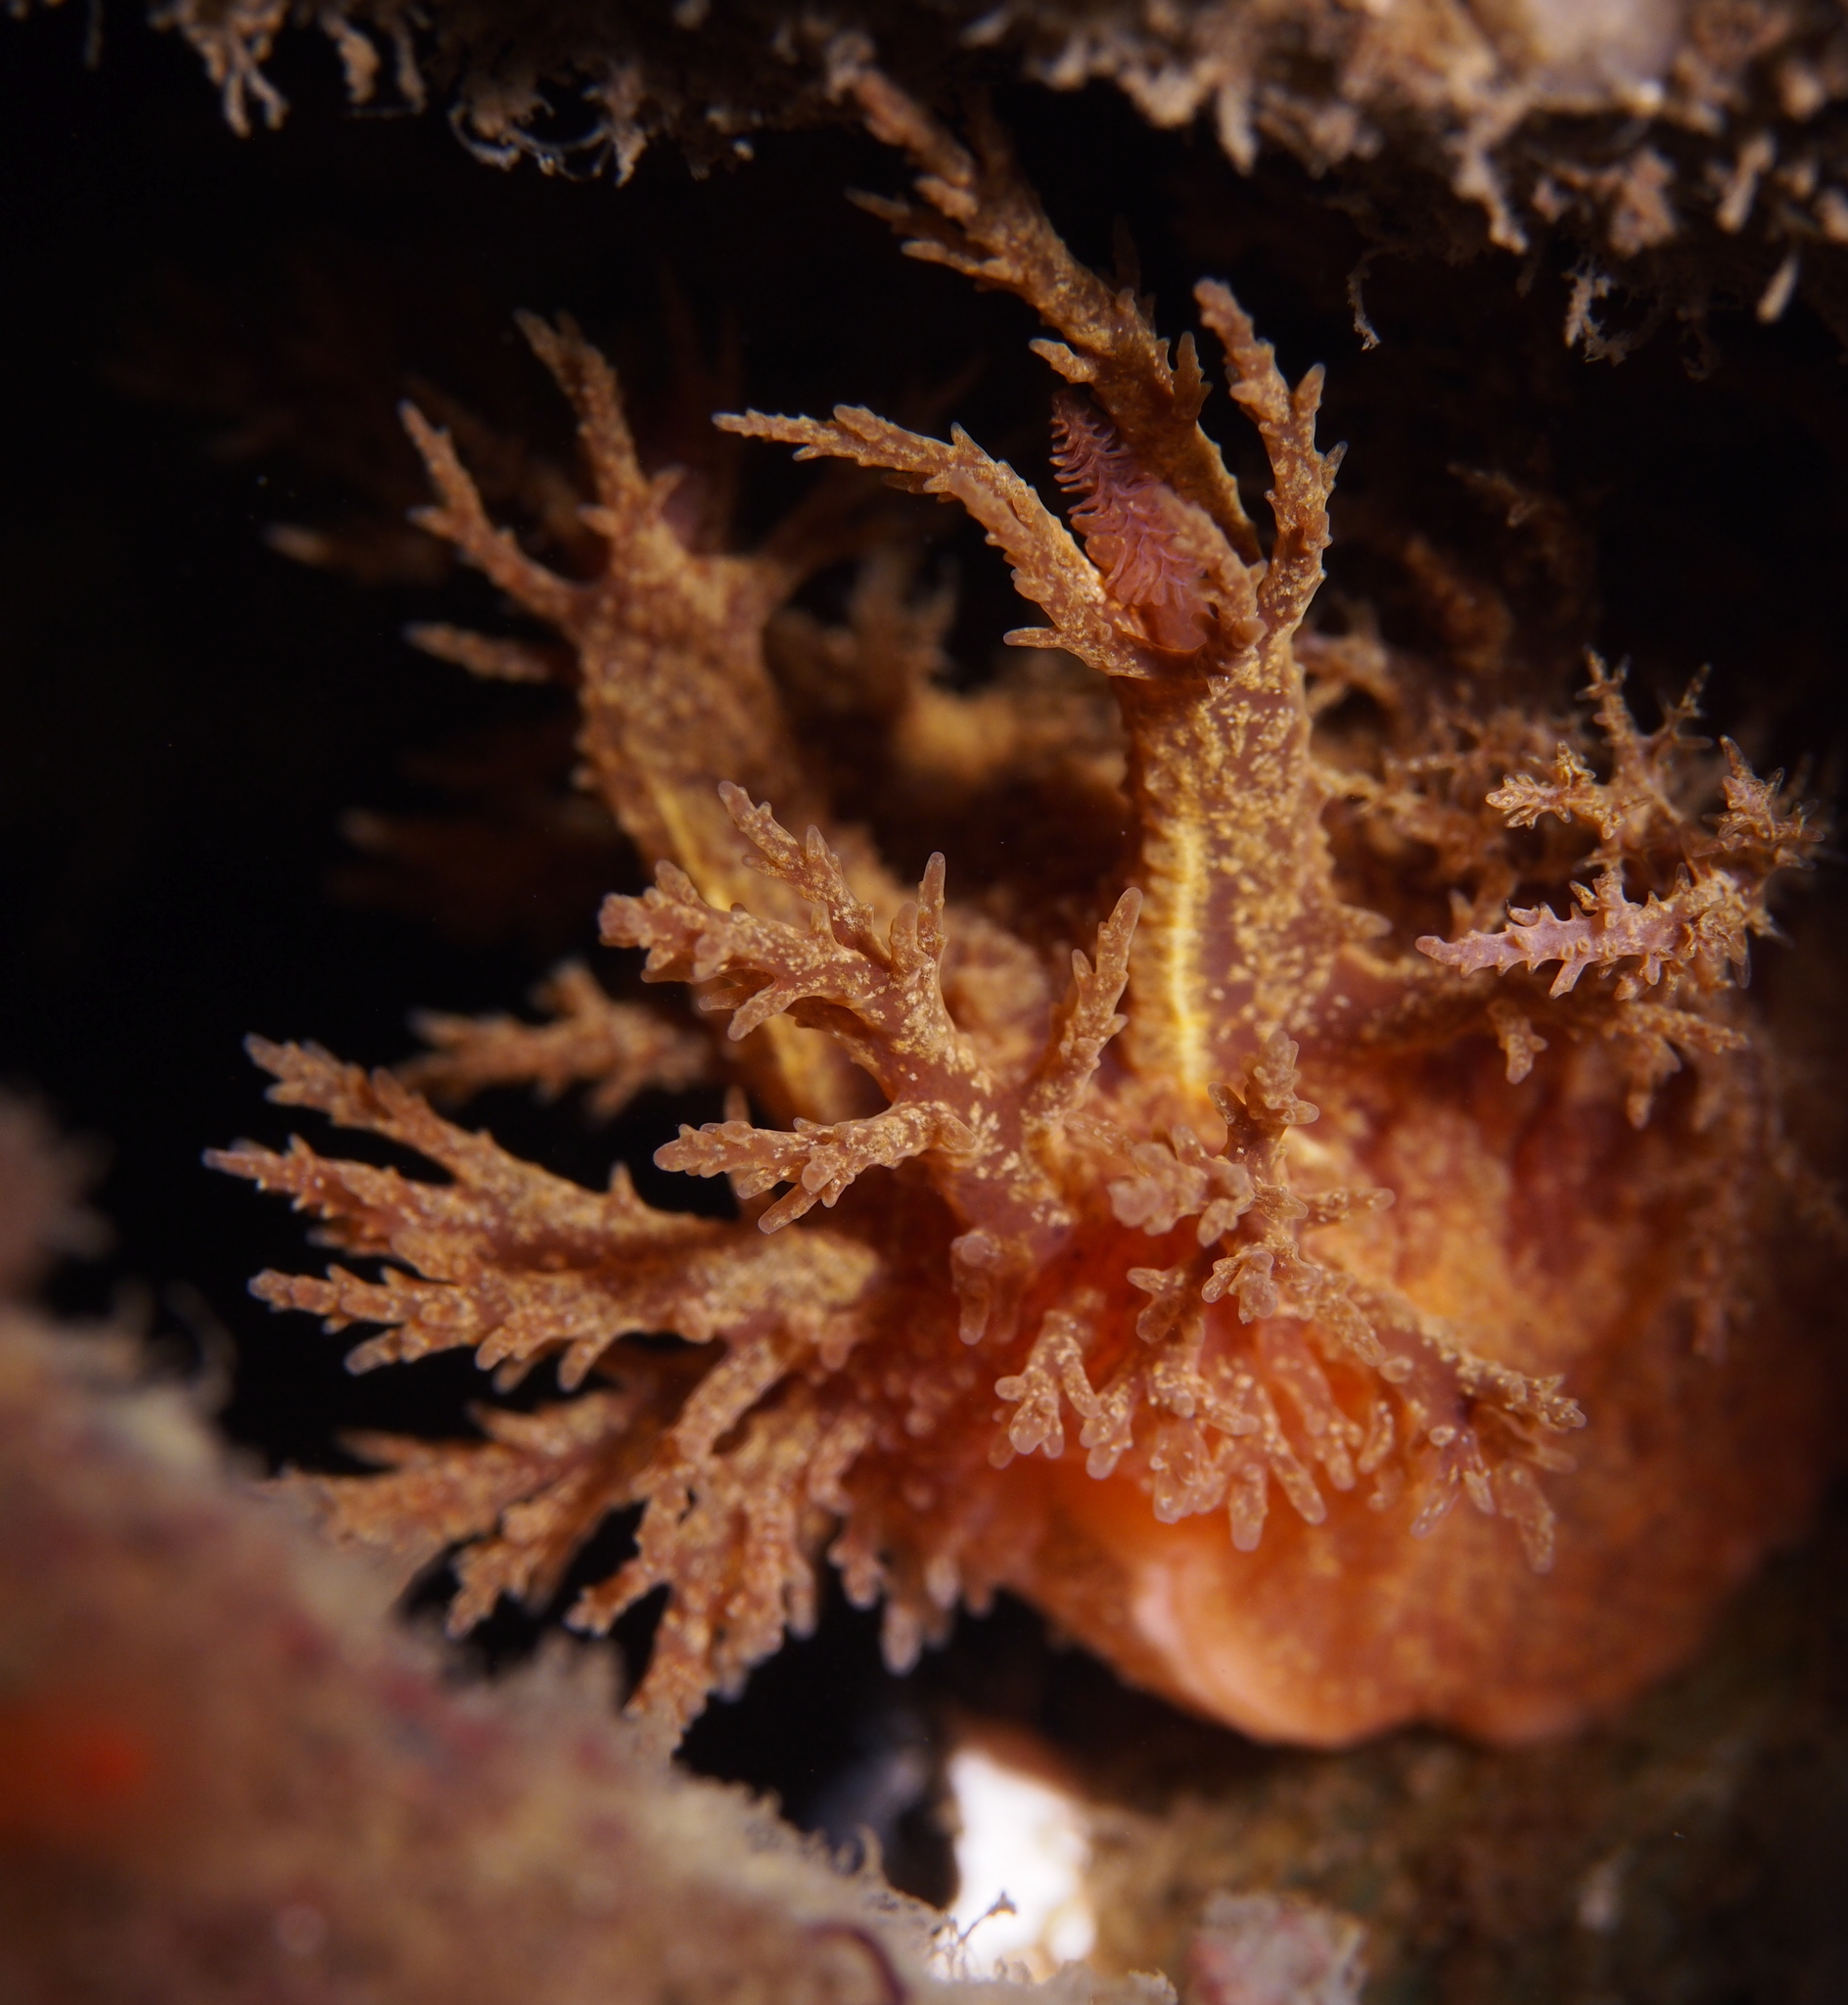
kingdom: Animalia
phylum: Mollusca
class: Gastropoda
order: Nudibranchia
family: Dendronotidae
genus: Dendronotus
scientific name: Dendronotus europaeus
